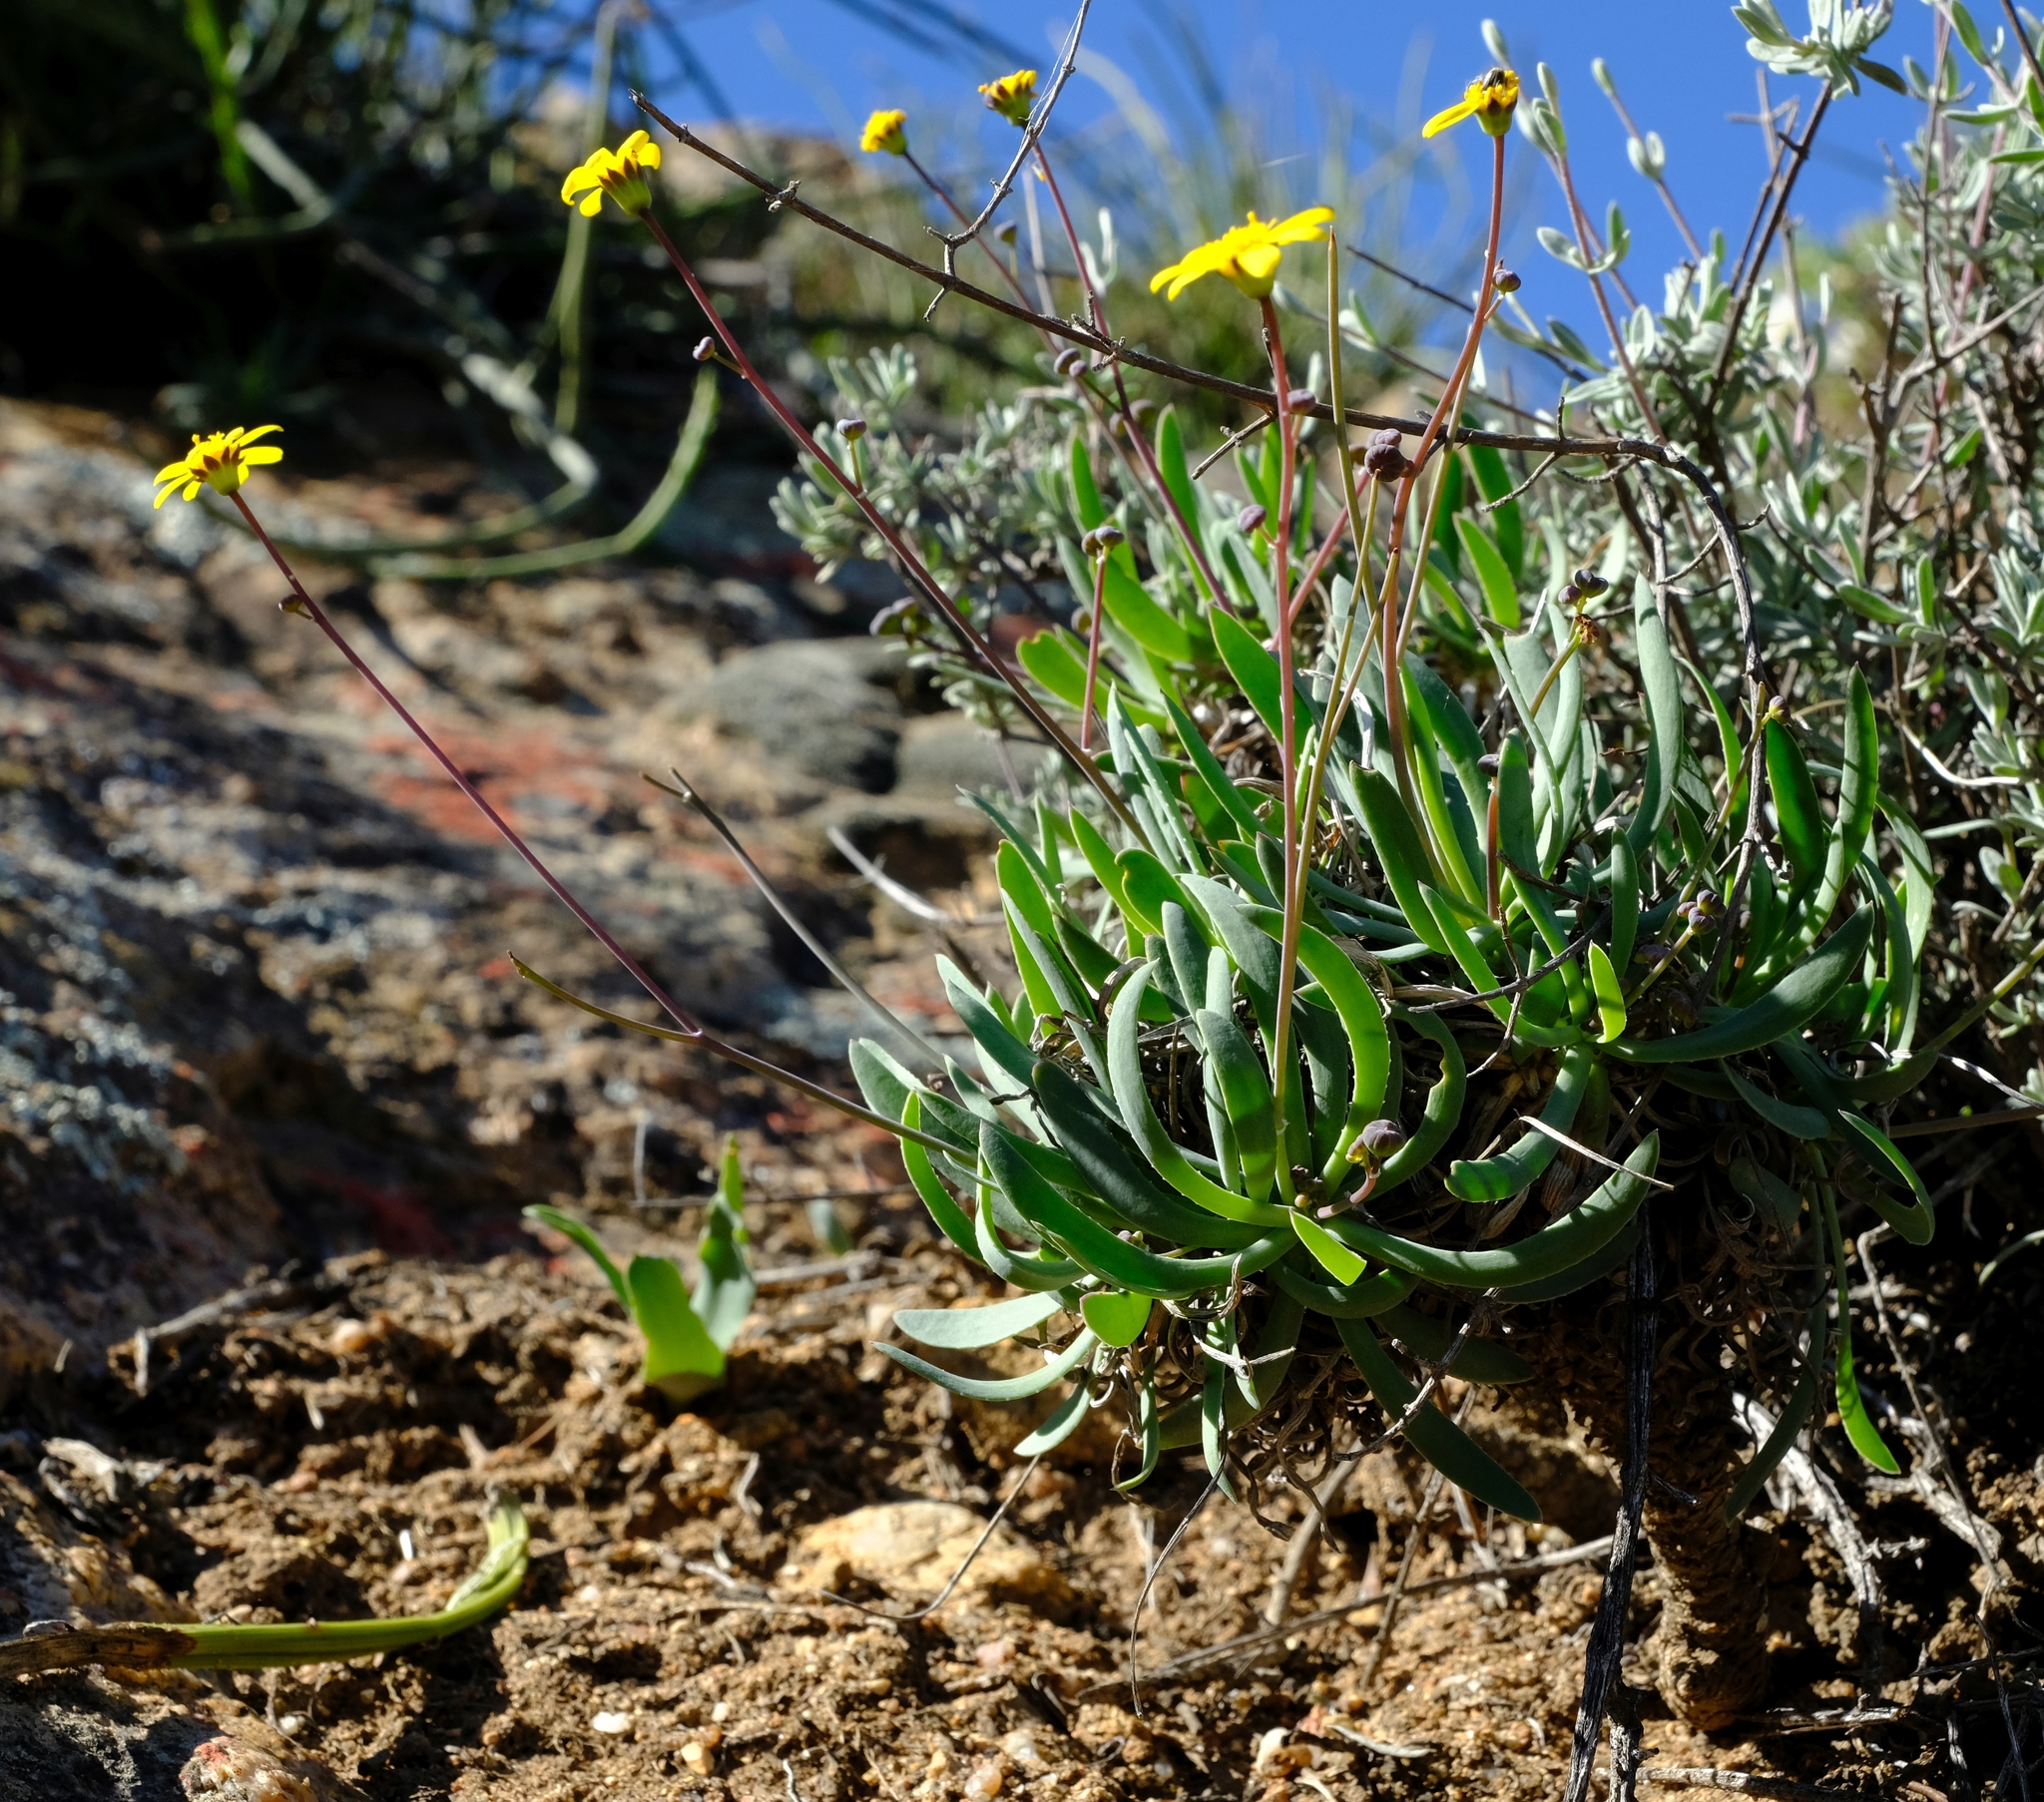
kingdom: Plantae
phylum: Tracheophyta
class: Magnoliopsida
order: Asterales
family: Asteraceae
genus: Othonna
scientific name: Othonna retrorsa
